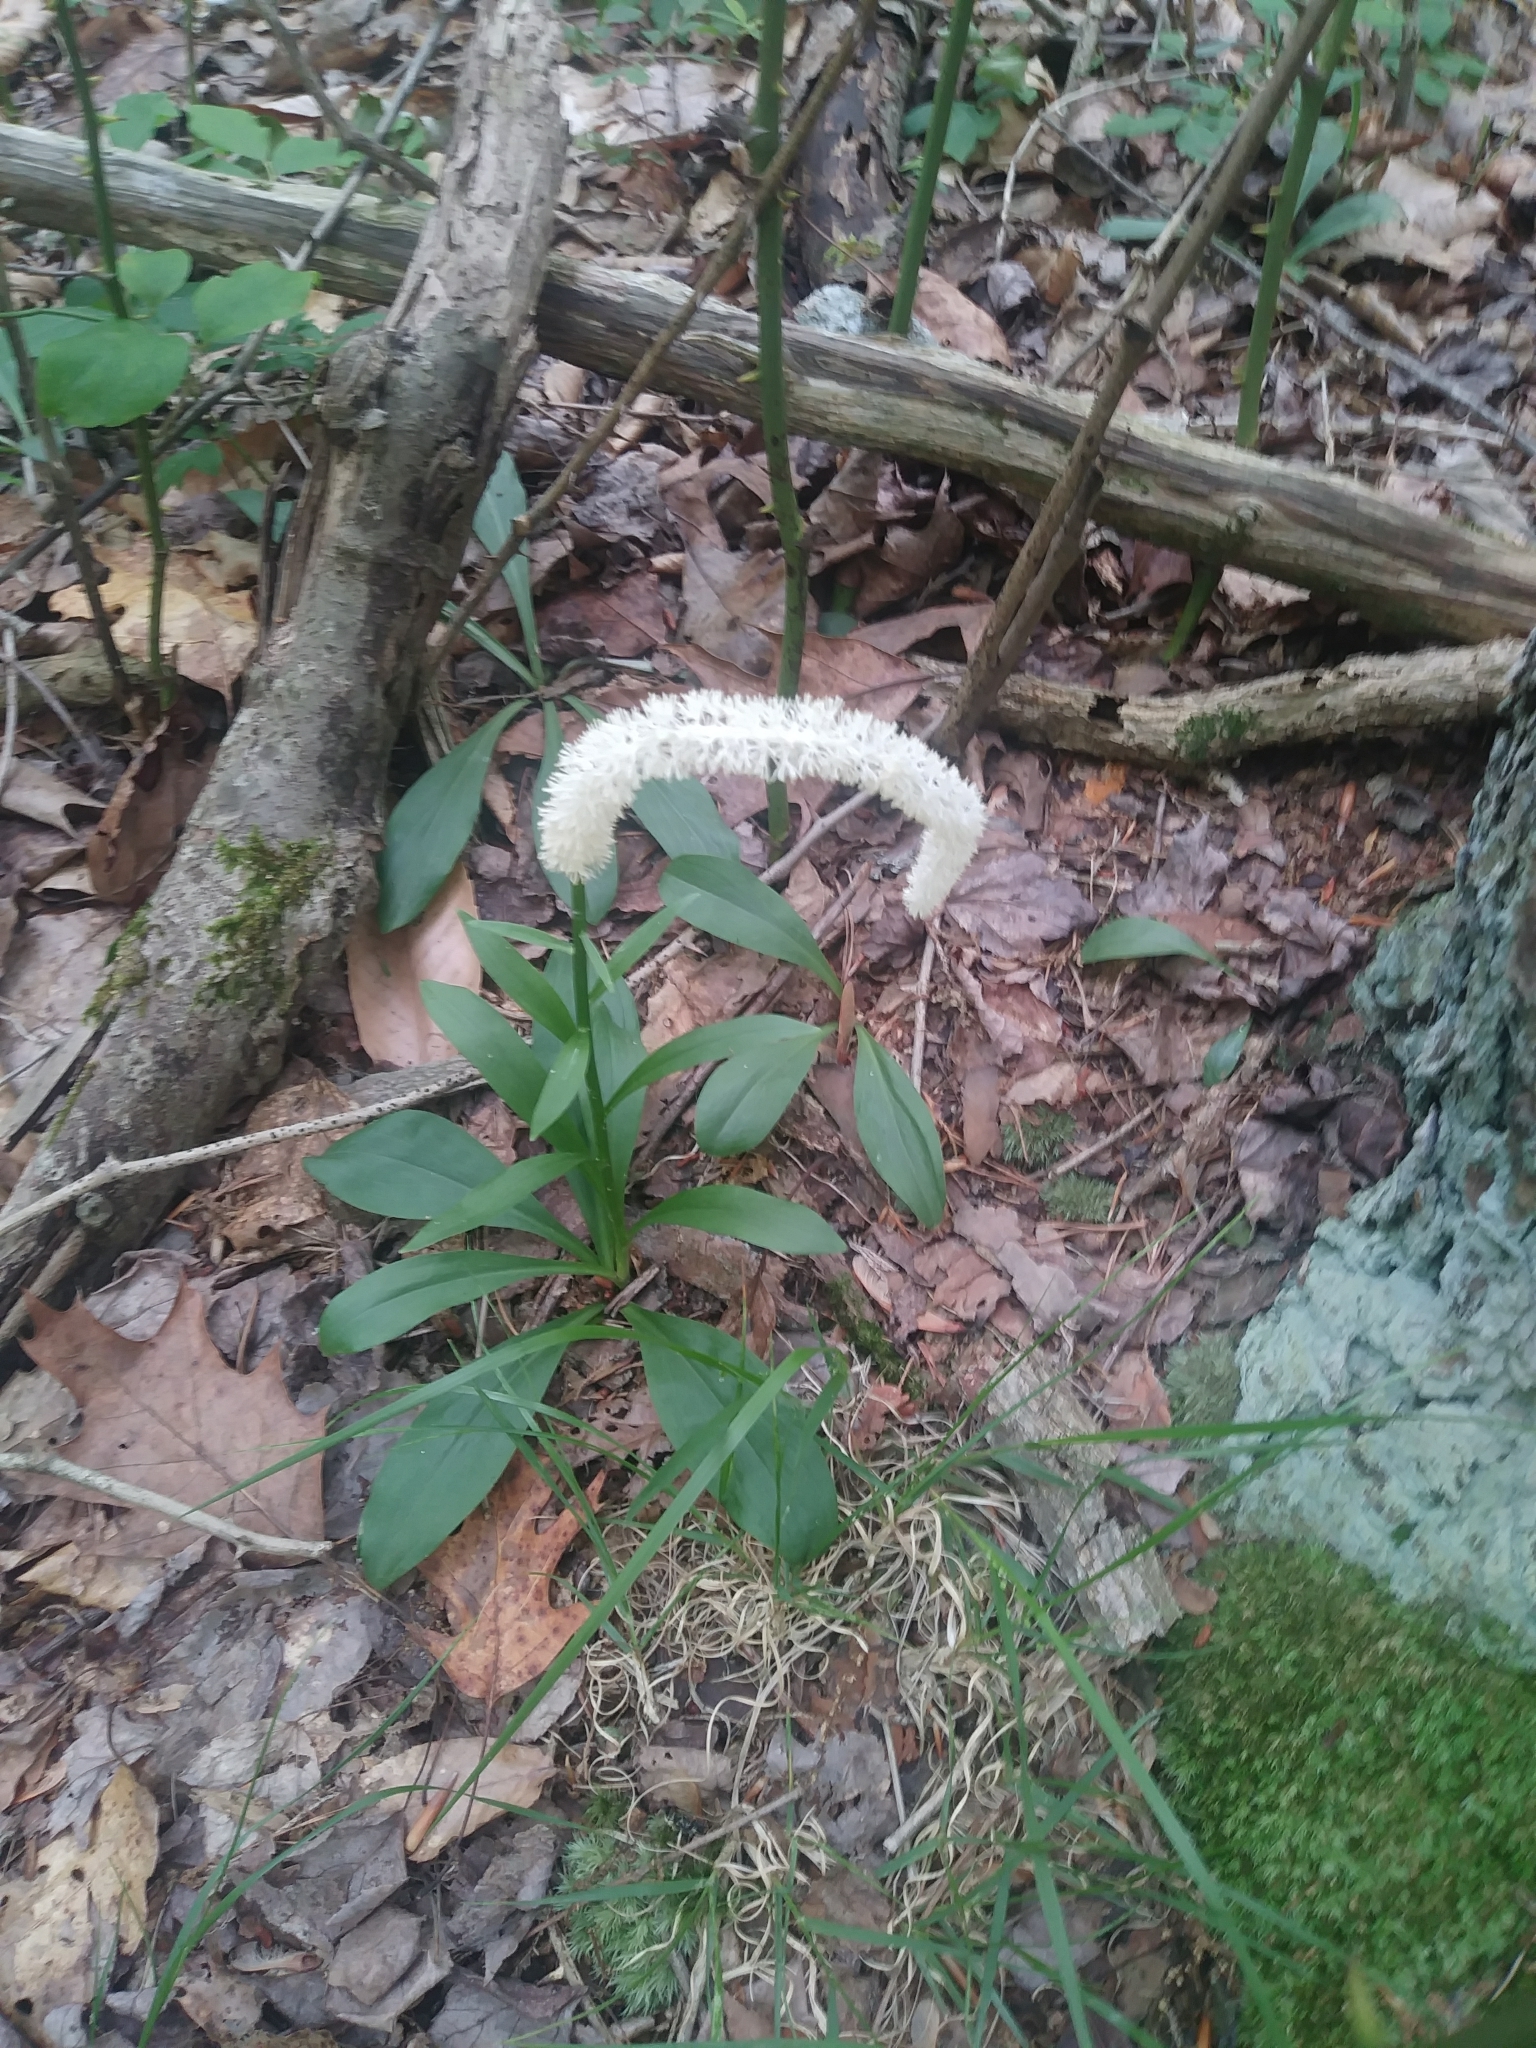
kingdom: Plantae
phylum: Tracheophyta
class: Liliopsida
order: Liliales
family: Melanthiaceae
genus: Chamaelirium
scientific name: Chamaelirium luteum
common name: Fairy-wand
